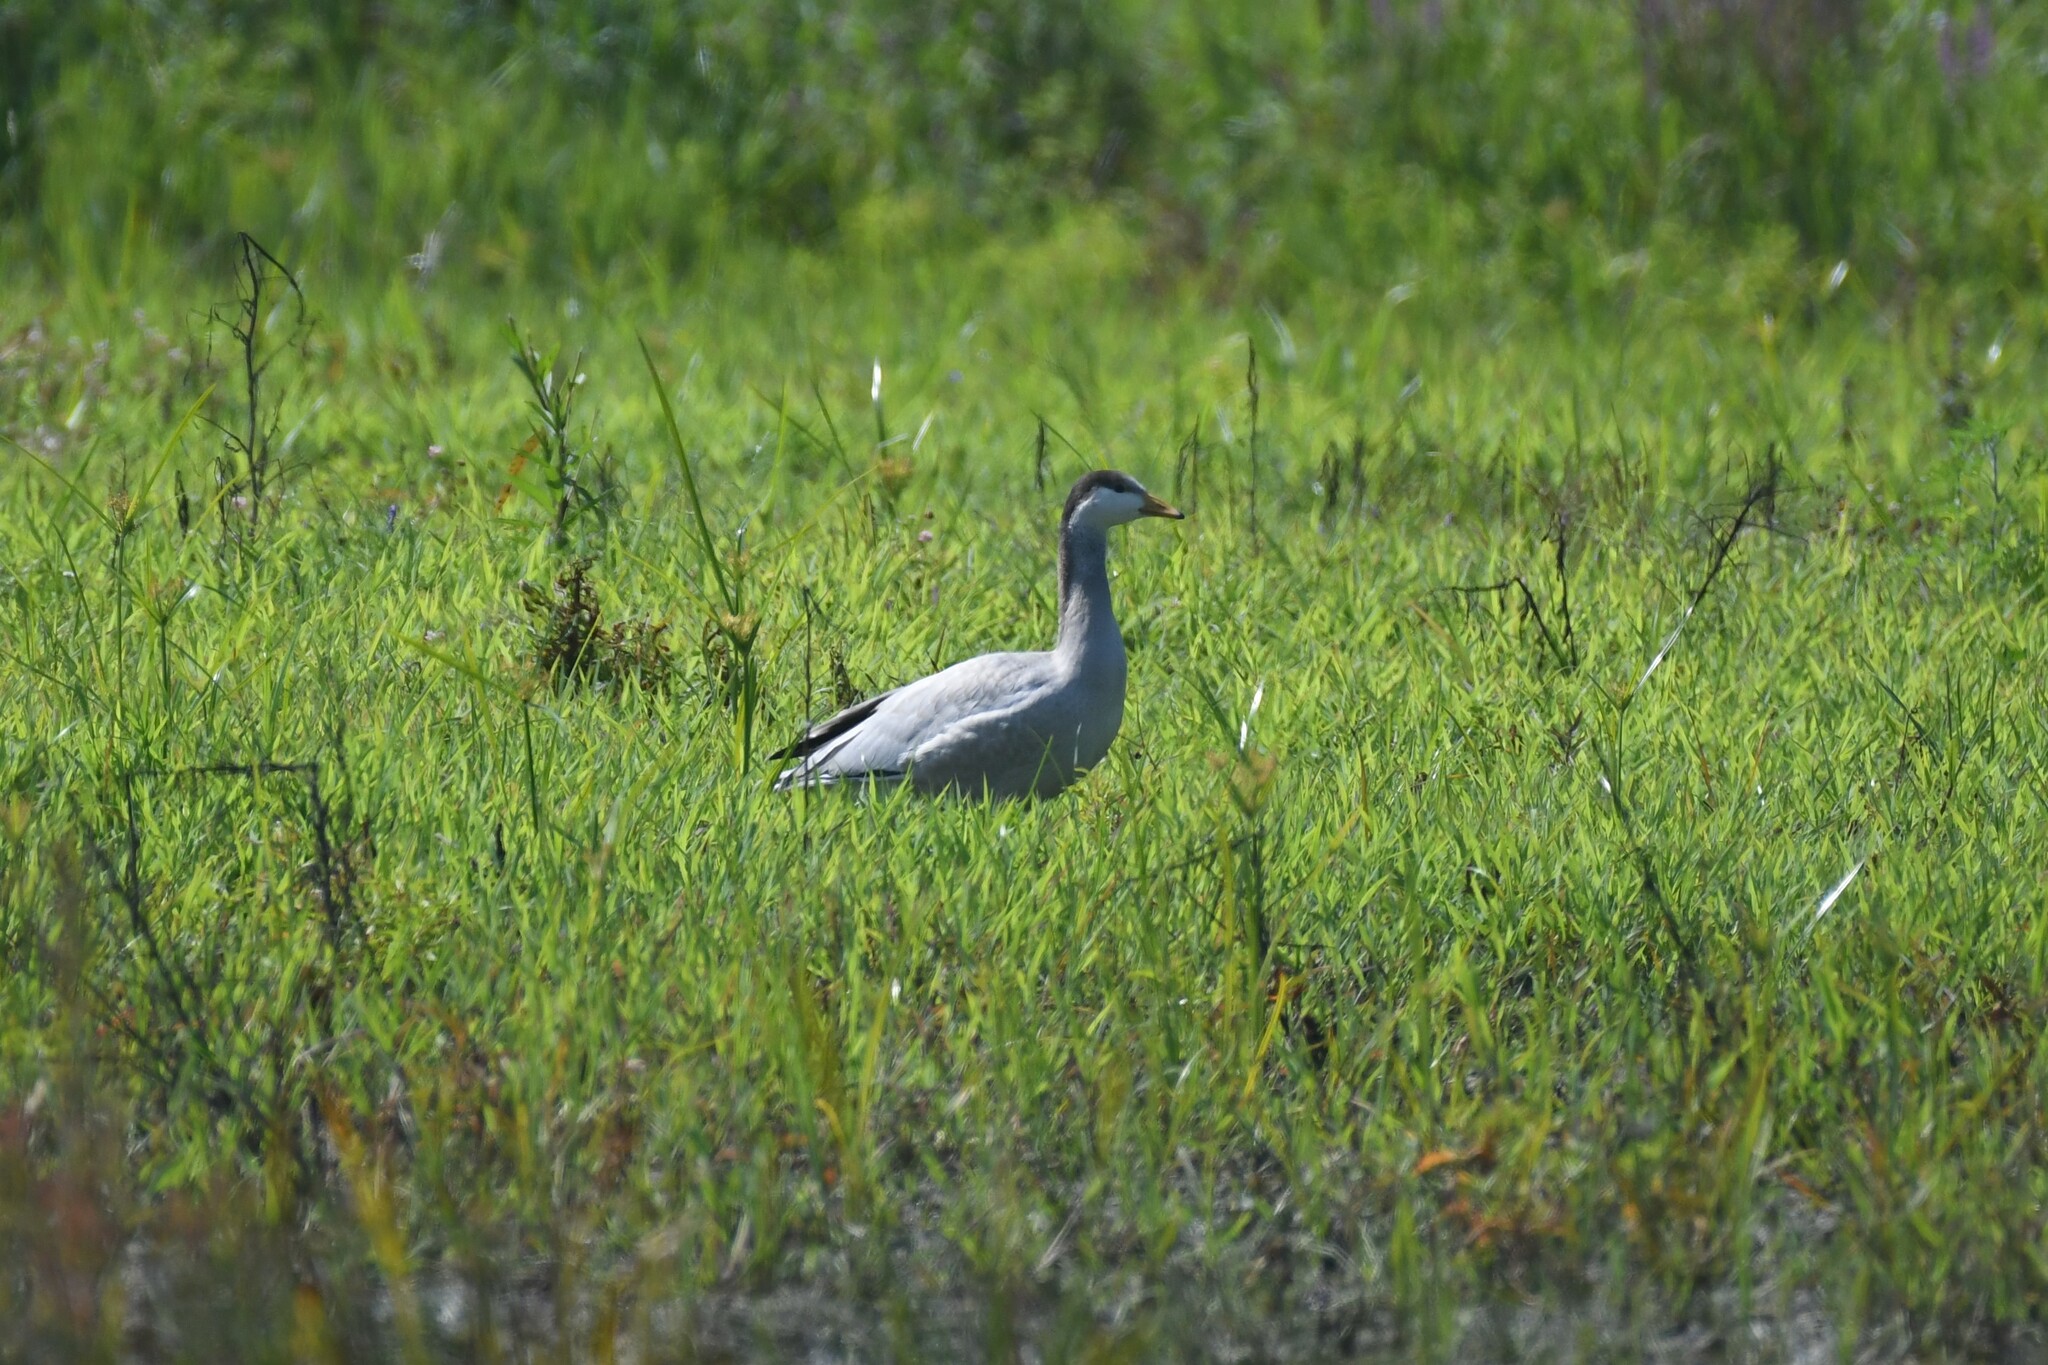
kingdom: Animalia
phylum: Chordata
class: Aves
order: Anseriformes
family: Anatidae
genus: Anser
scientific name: Anser indicus
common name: Bar-headed goose
